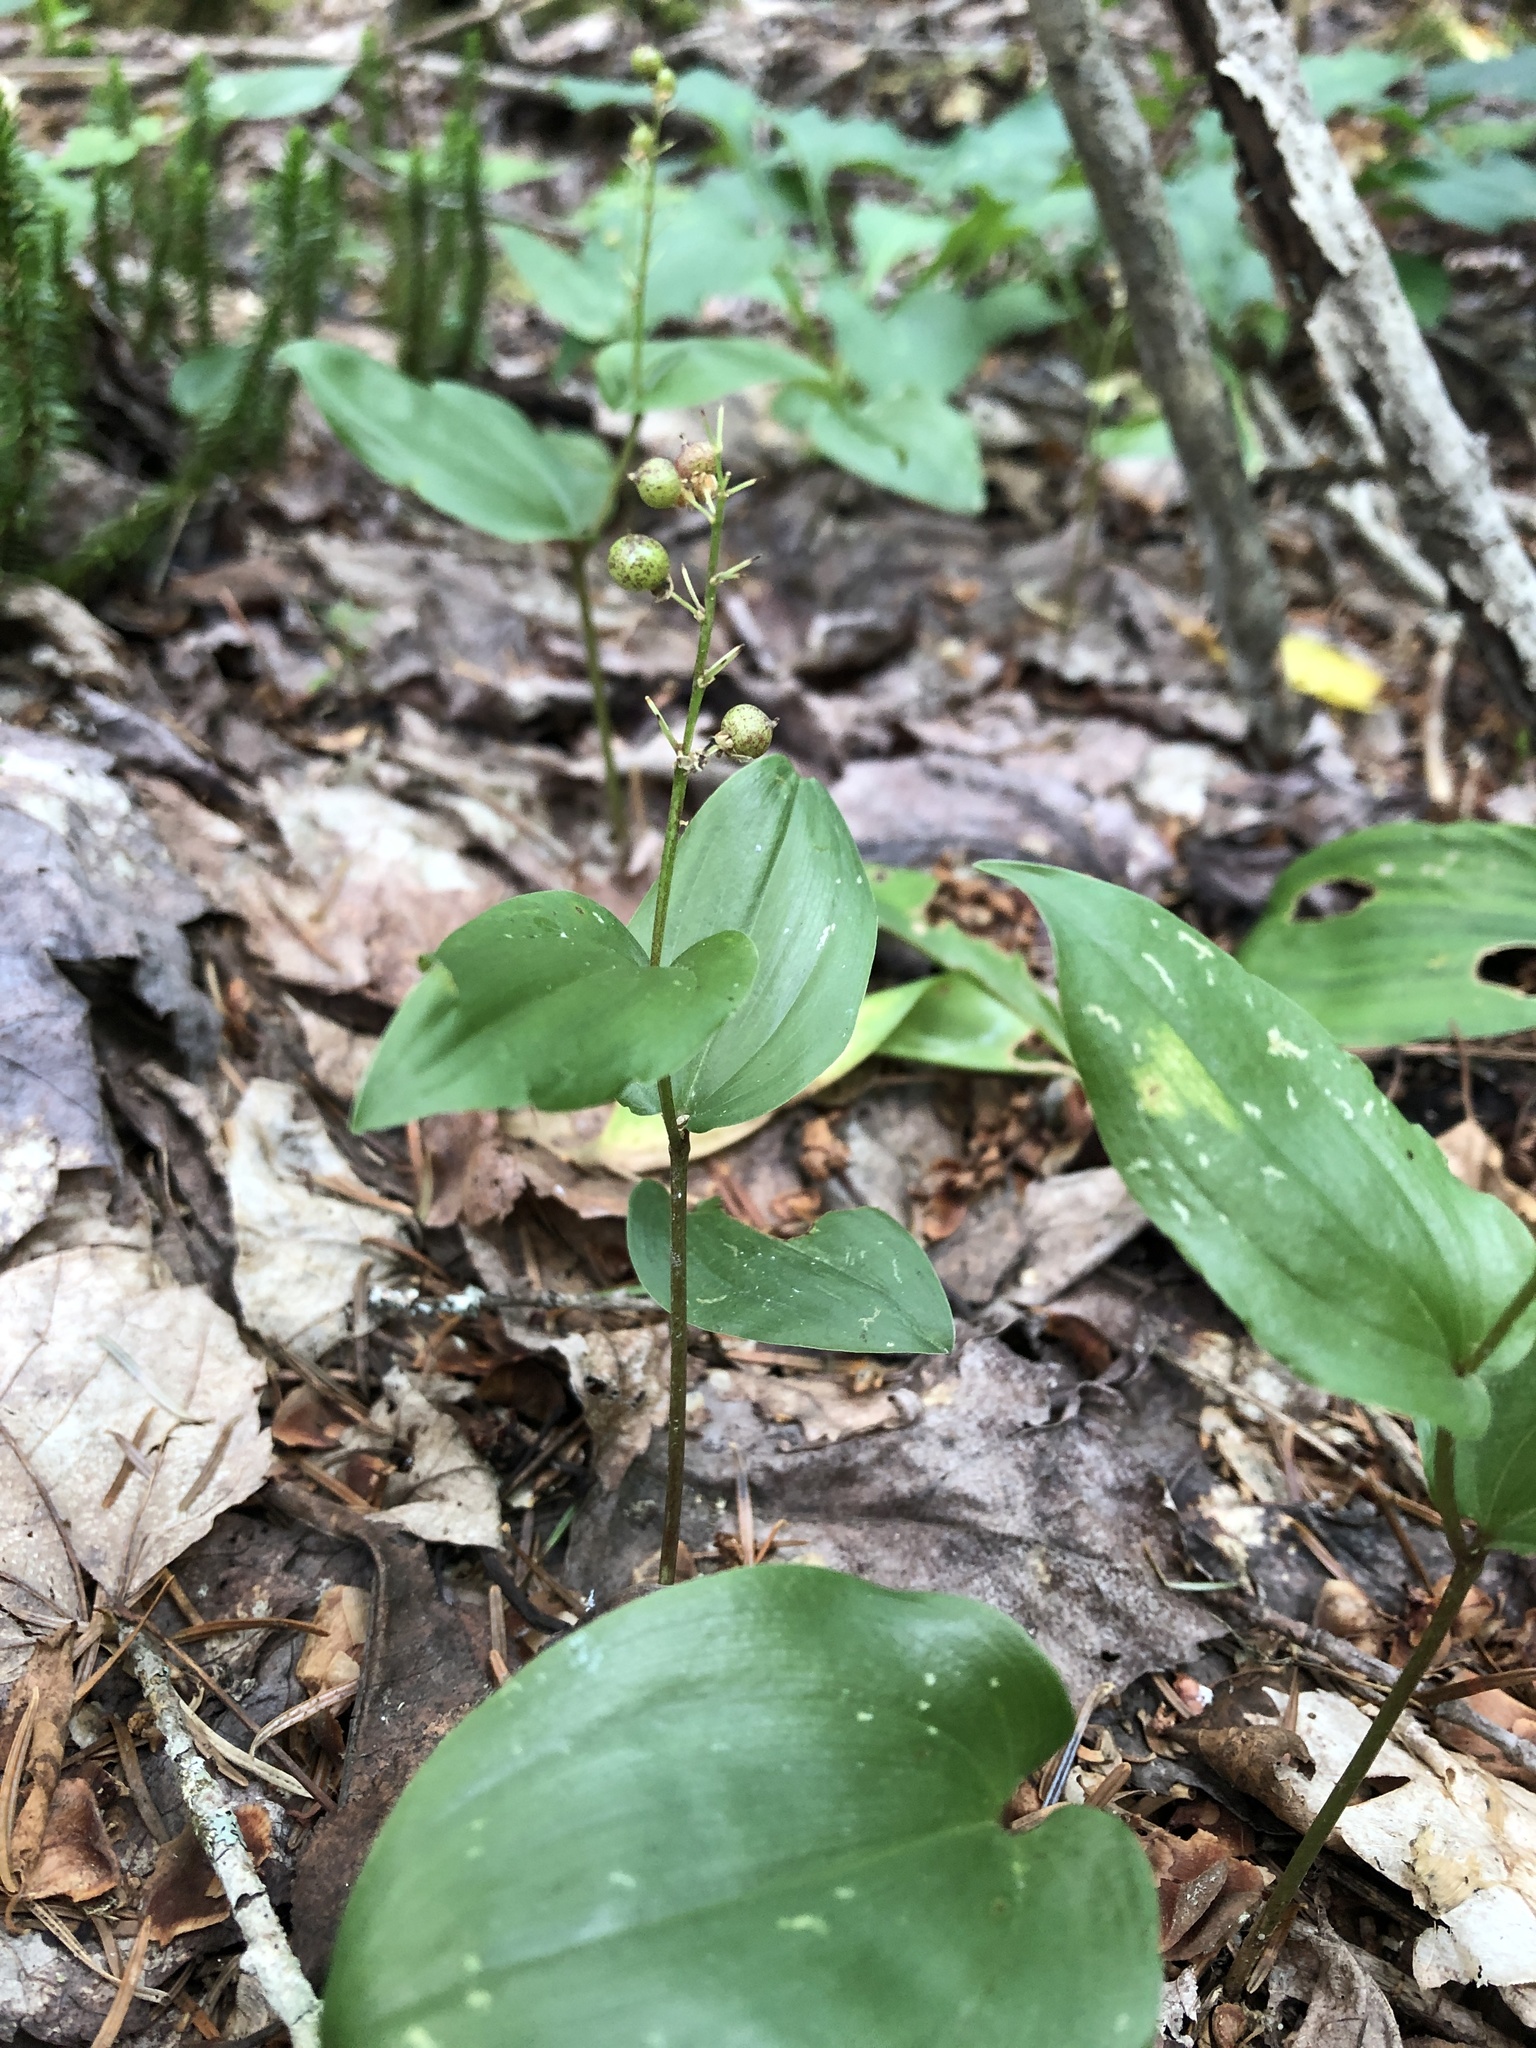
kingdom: Plantae
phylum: Tracheophyta
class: Liliopsida
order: Asparagales
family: Asparagaceae
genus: Maianthemum
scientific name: Maianthemum canadense
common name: False lily-of-the-valley
